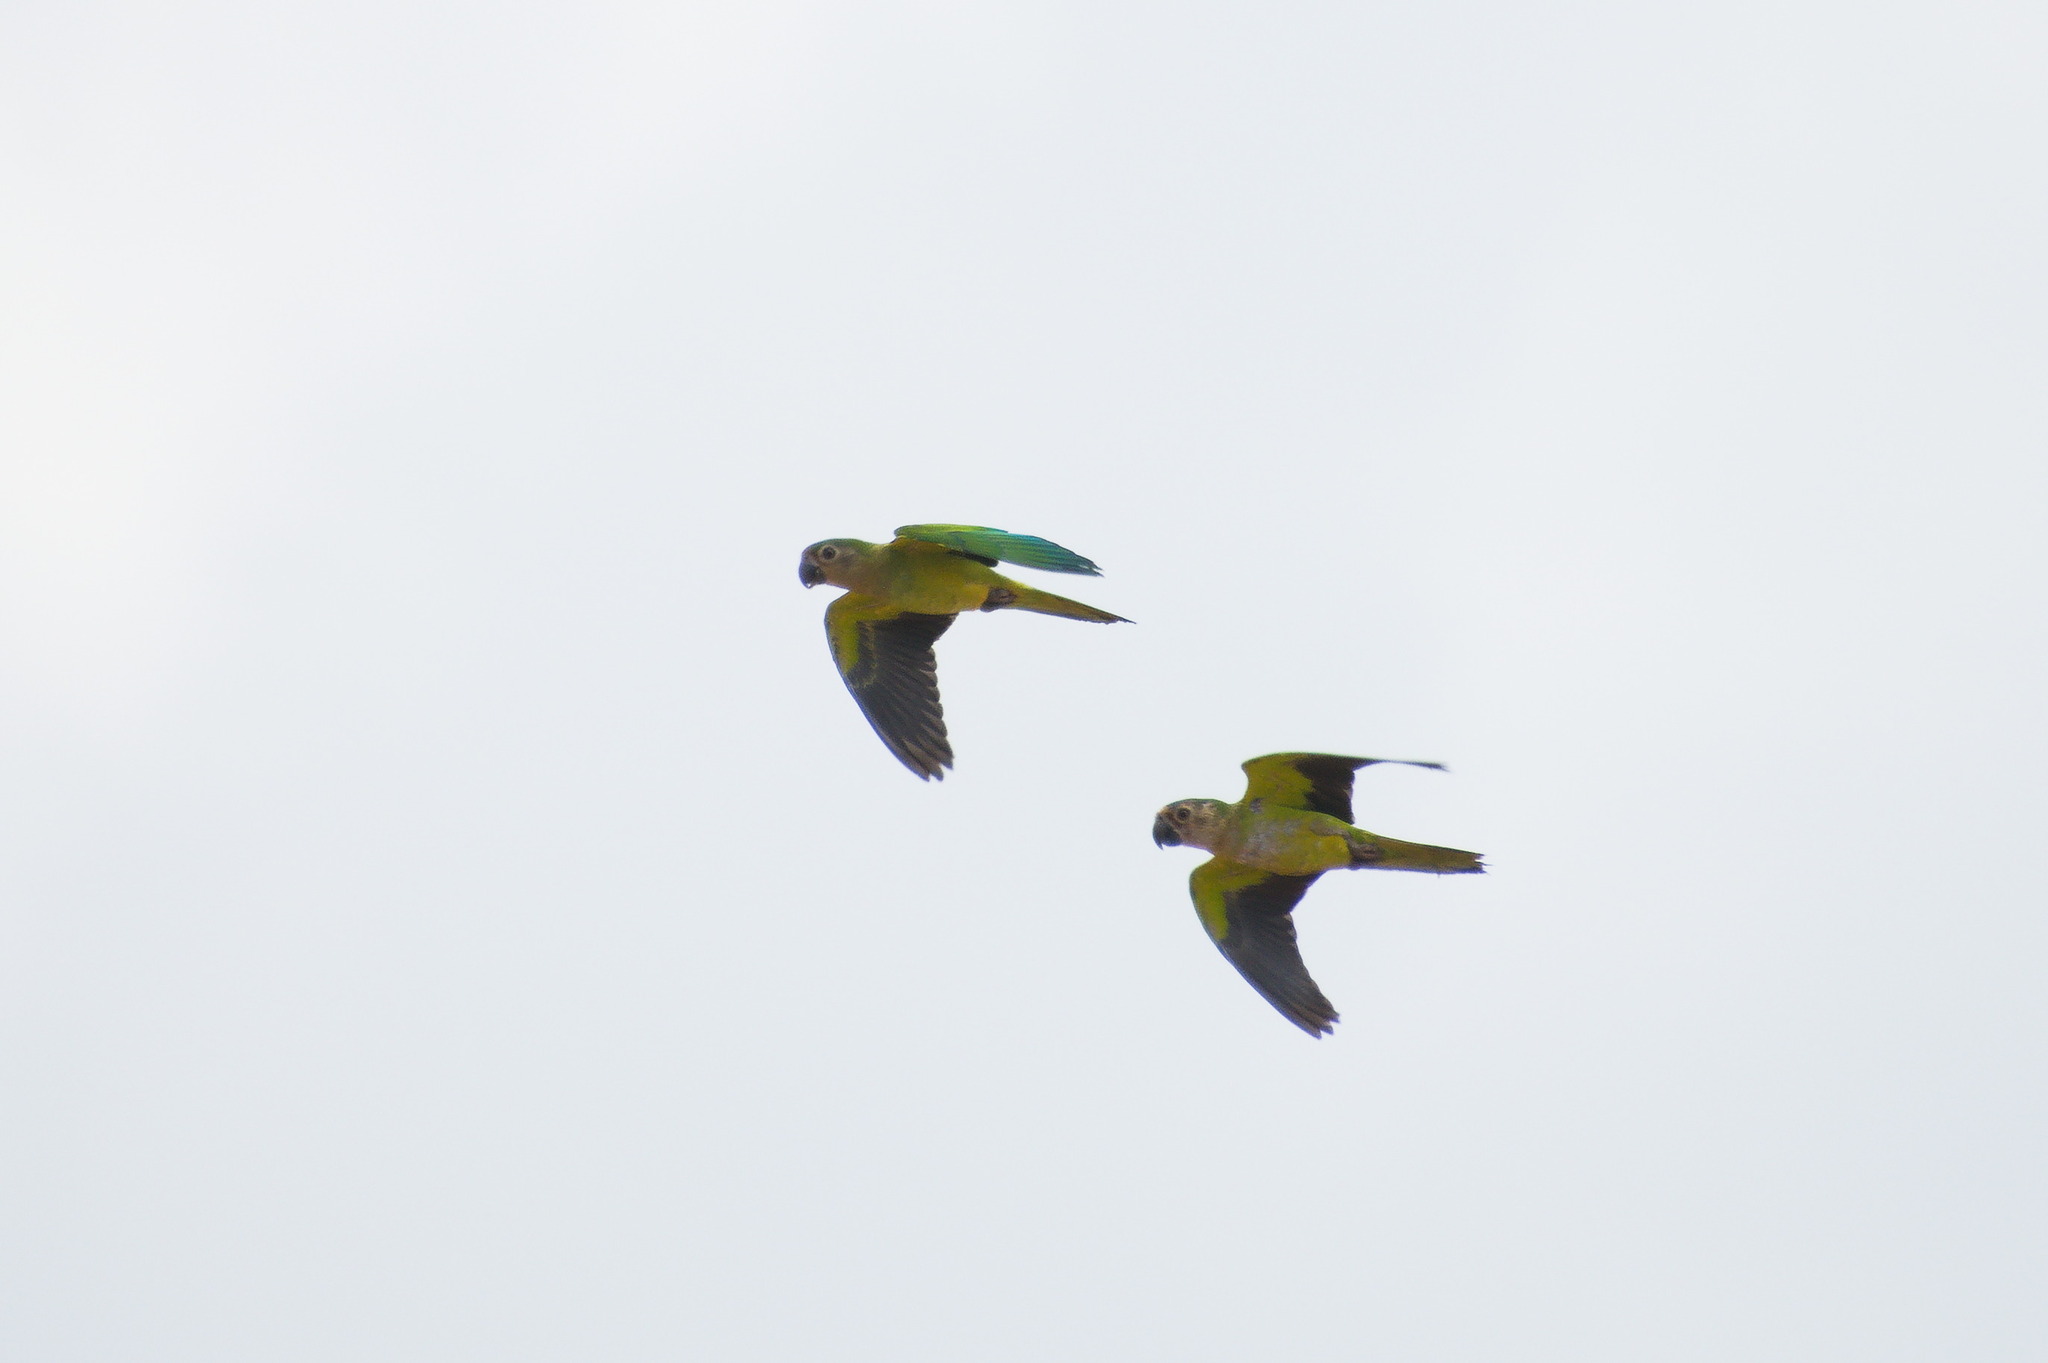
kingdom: Animalia
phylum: Chordata
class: Aves
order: Psittaciformes
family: Psittacidae
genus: Aratinga
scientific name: Aratinga pertinax
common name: Brown-throated parakeet
